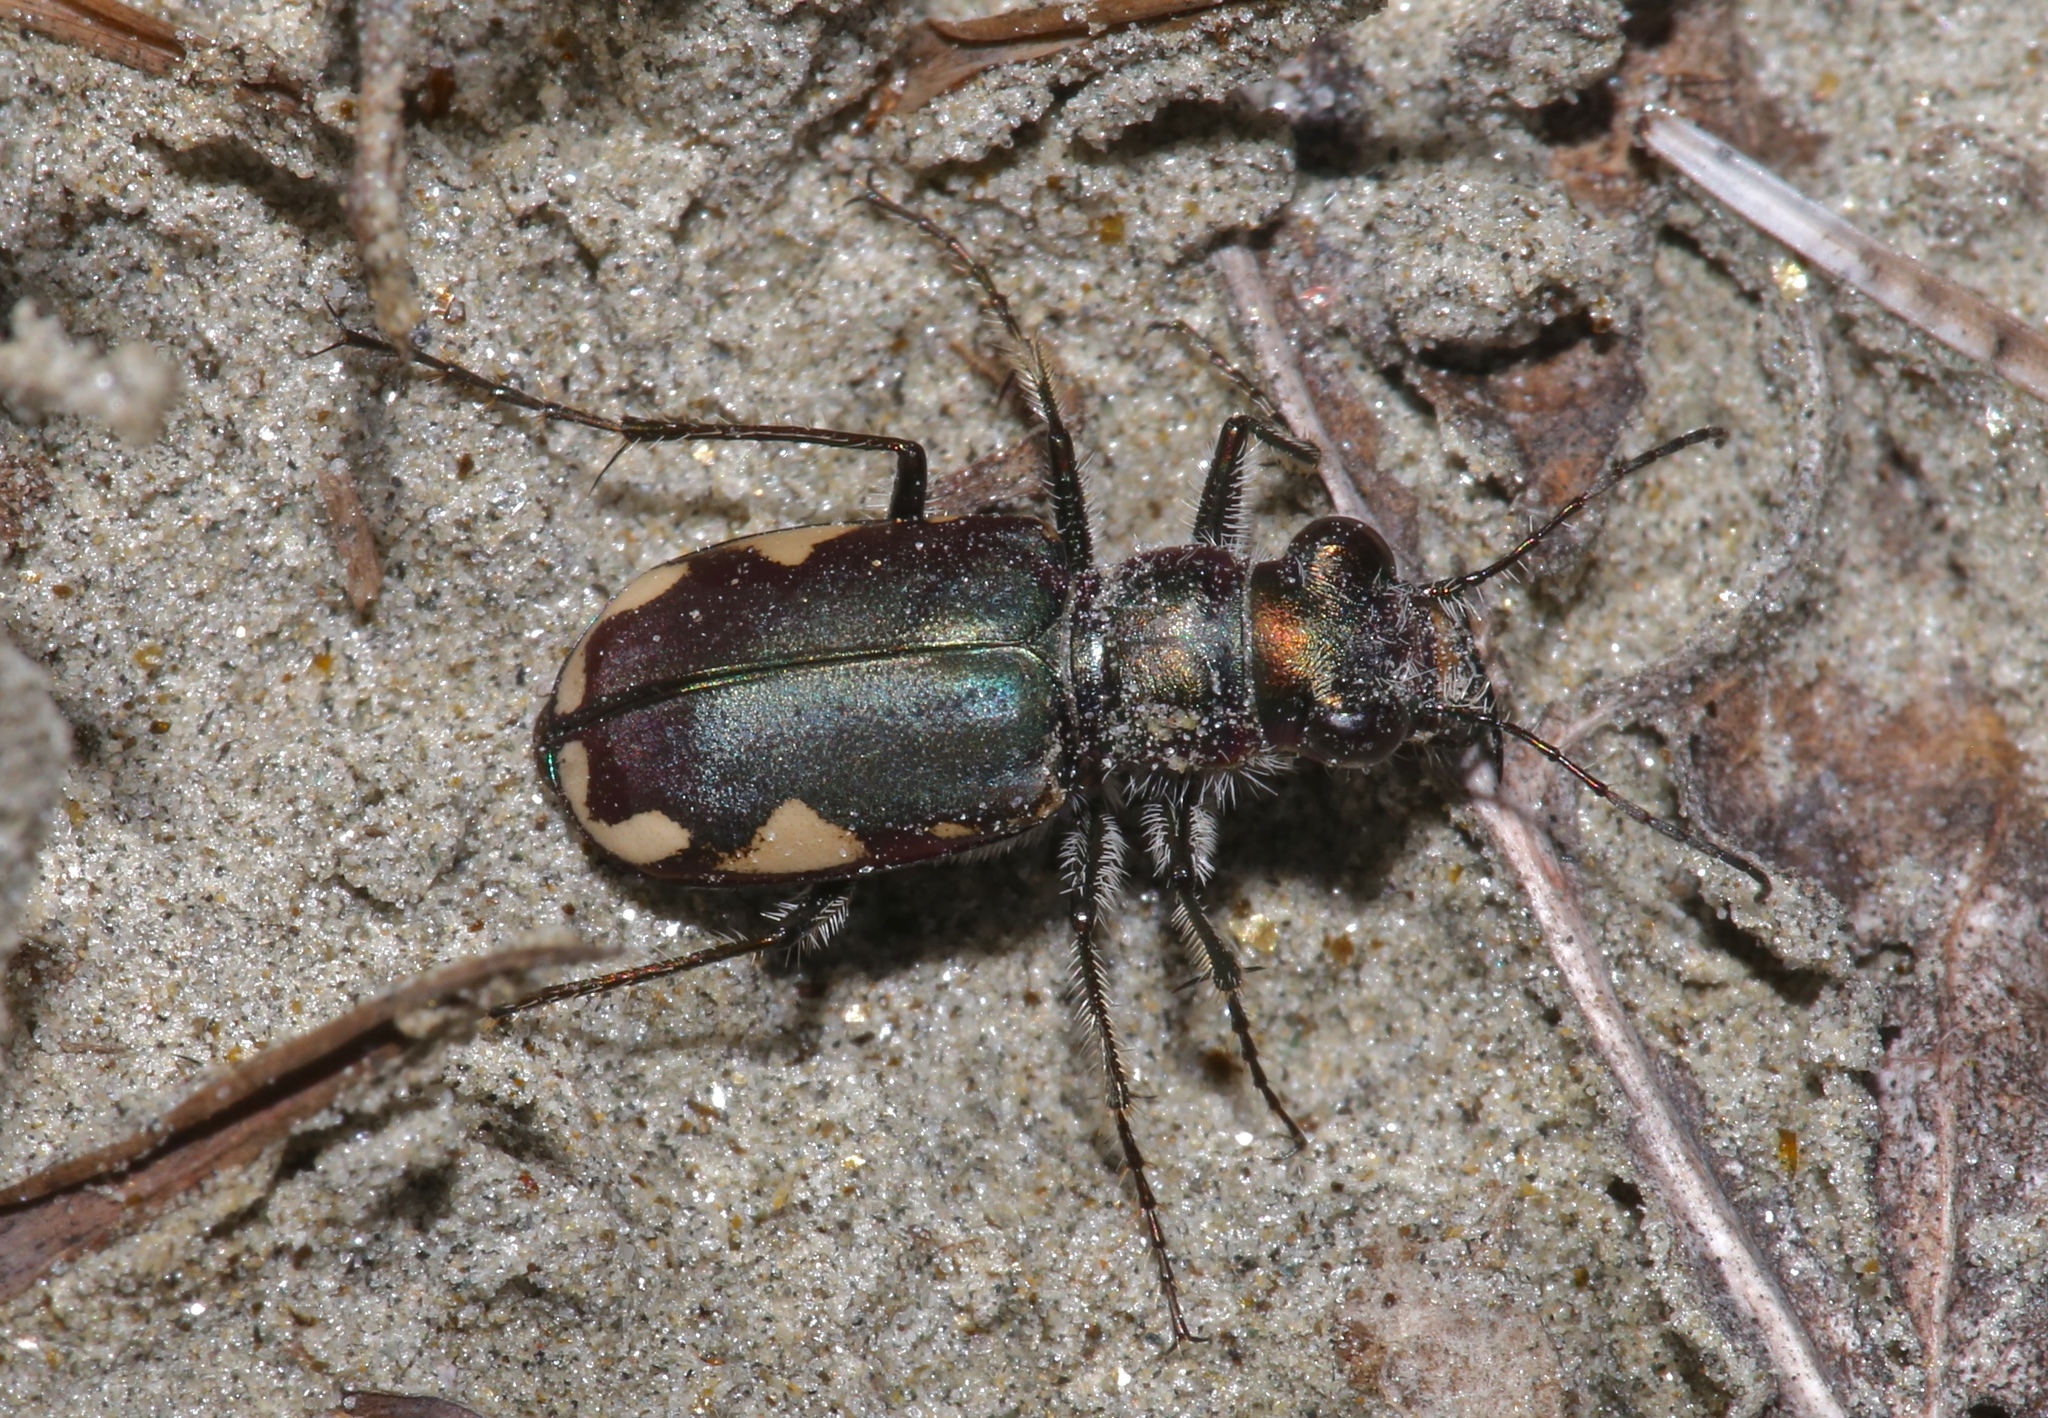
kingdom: Animalia
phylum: Arthropoda
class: Insecta
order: Coleoptera
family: Carabidae
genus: Cicindela
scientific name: Cicindela scutellaris
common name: Festive tiger beetle
